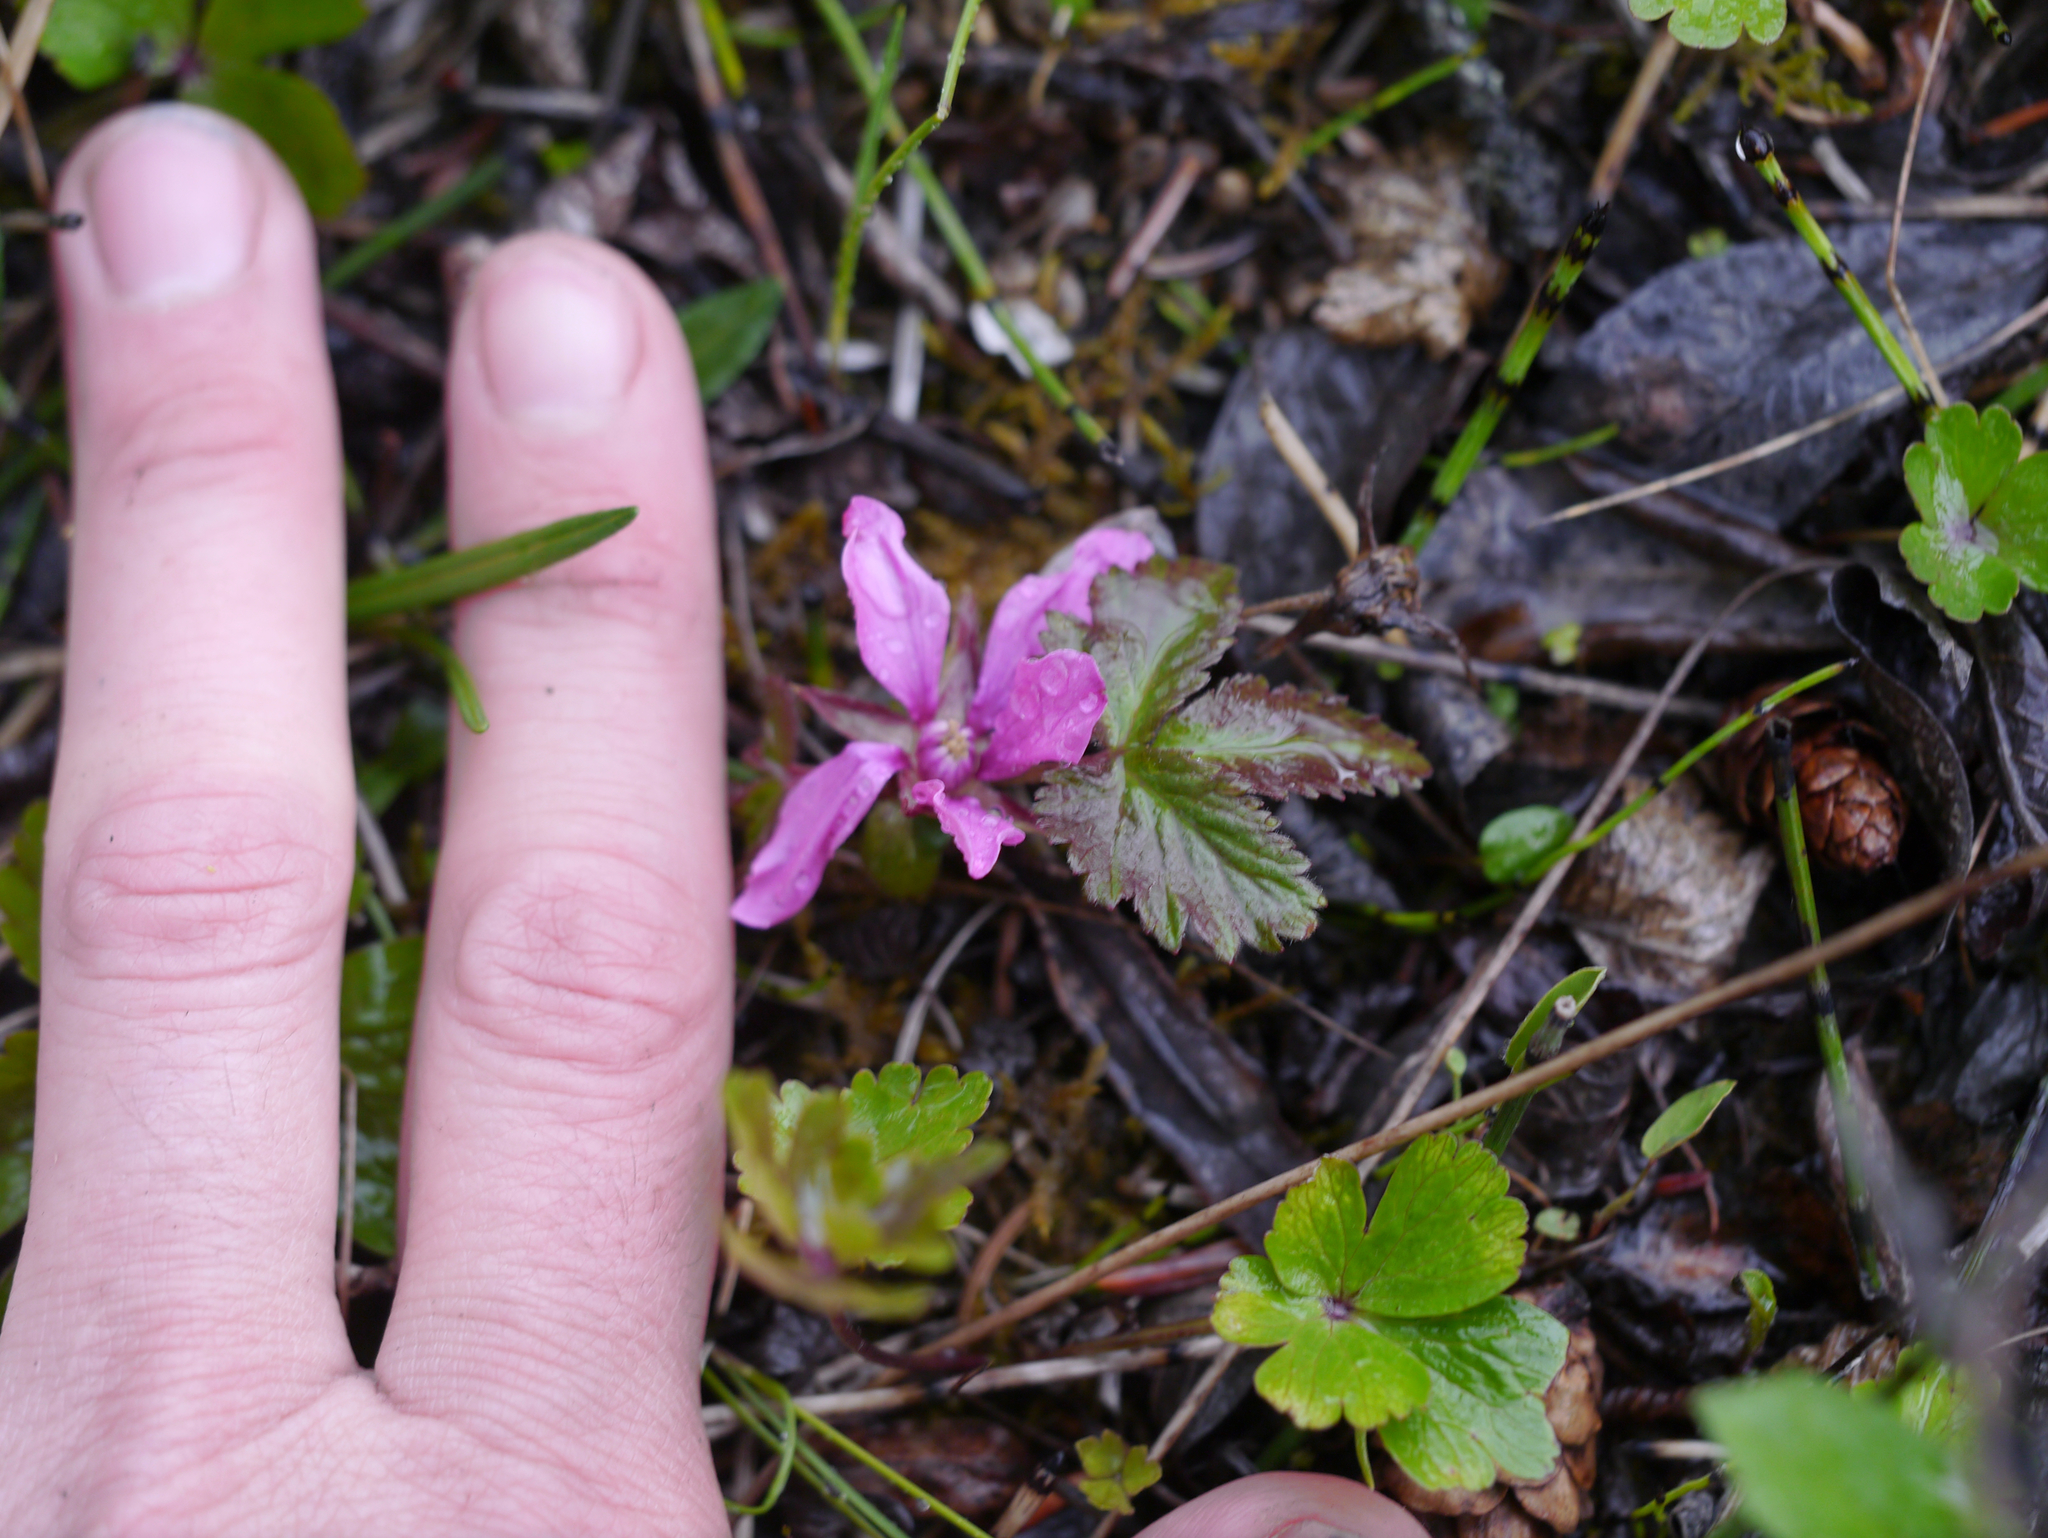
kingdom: Plantae
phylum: Tracheophyta
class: Magnoliopsida
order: Rosales
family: Rosaceae
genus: Rubus
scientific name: Rubus arcticus
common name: Arctic bramble
